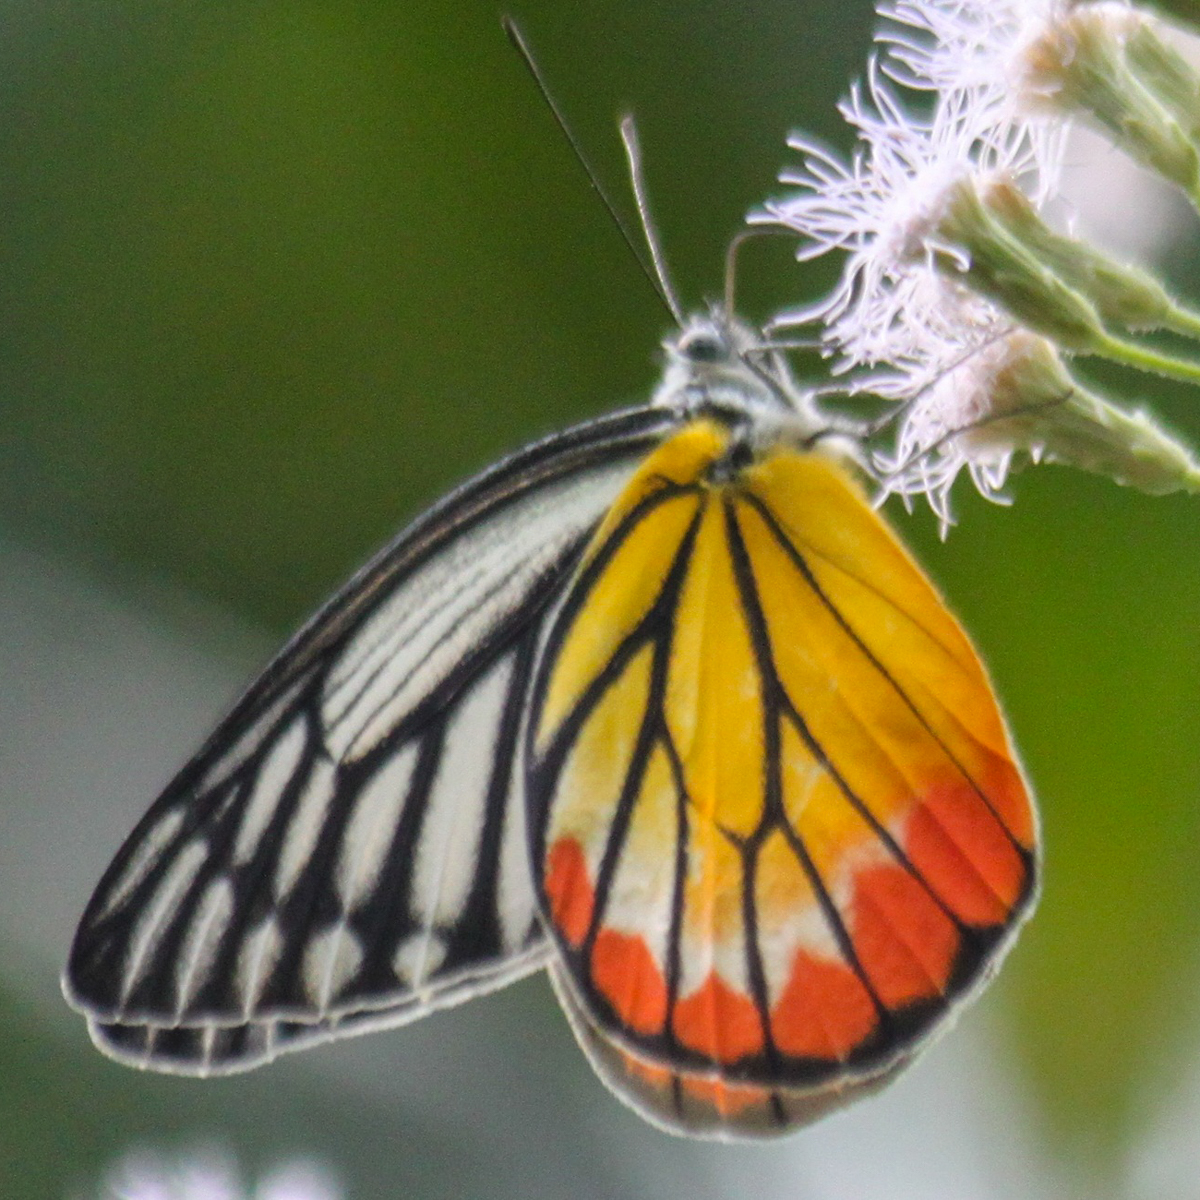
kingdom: Animalia
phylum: Arthropoda
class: Insecta
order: Lepidoptera
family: Pieridae
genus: Delias
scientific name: Delias hyparete
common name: Painted jezebel
